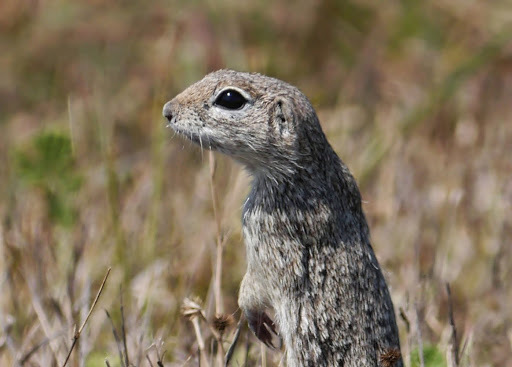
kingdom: Animalia
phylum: Chordata
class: Mammalia
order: Rodentia
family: Sciuridae
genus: Xerospermophilus
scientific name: Xerospermophilus spilosoma
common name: Spotted ground squirrel
